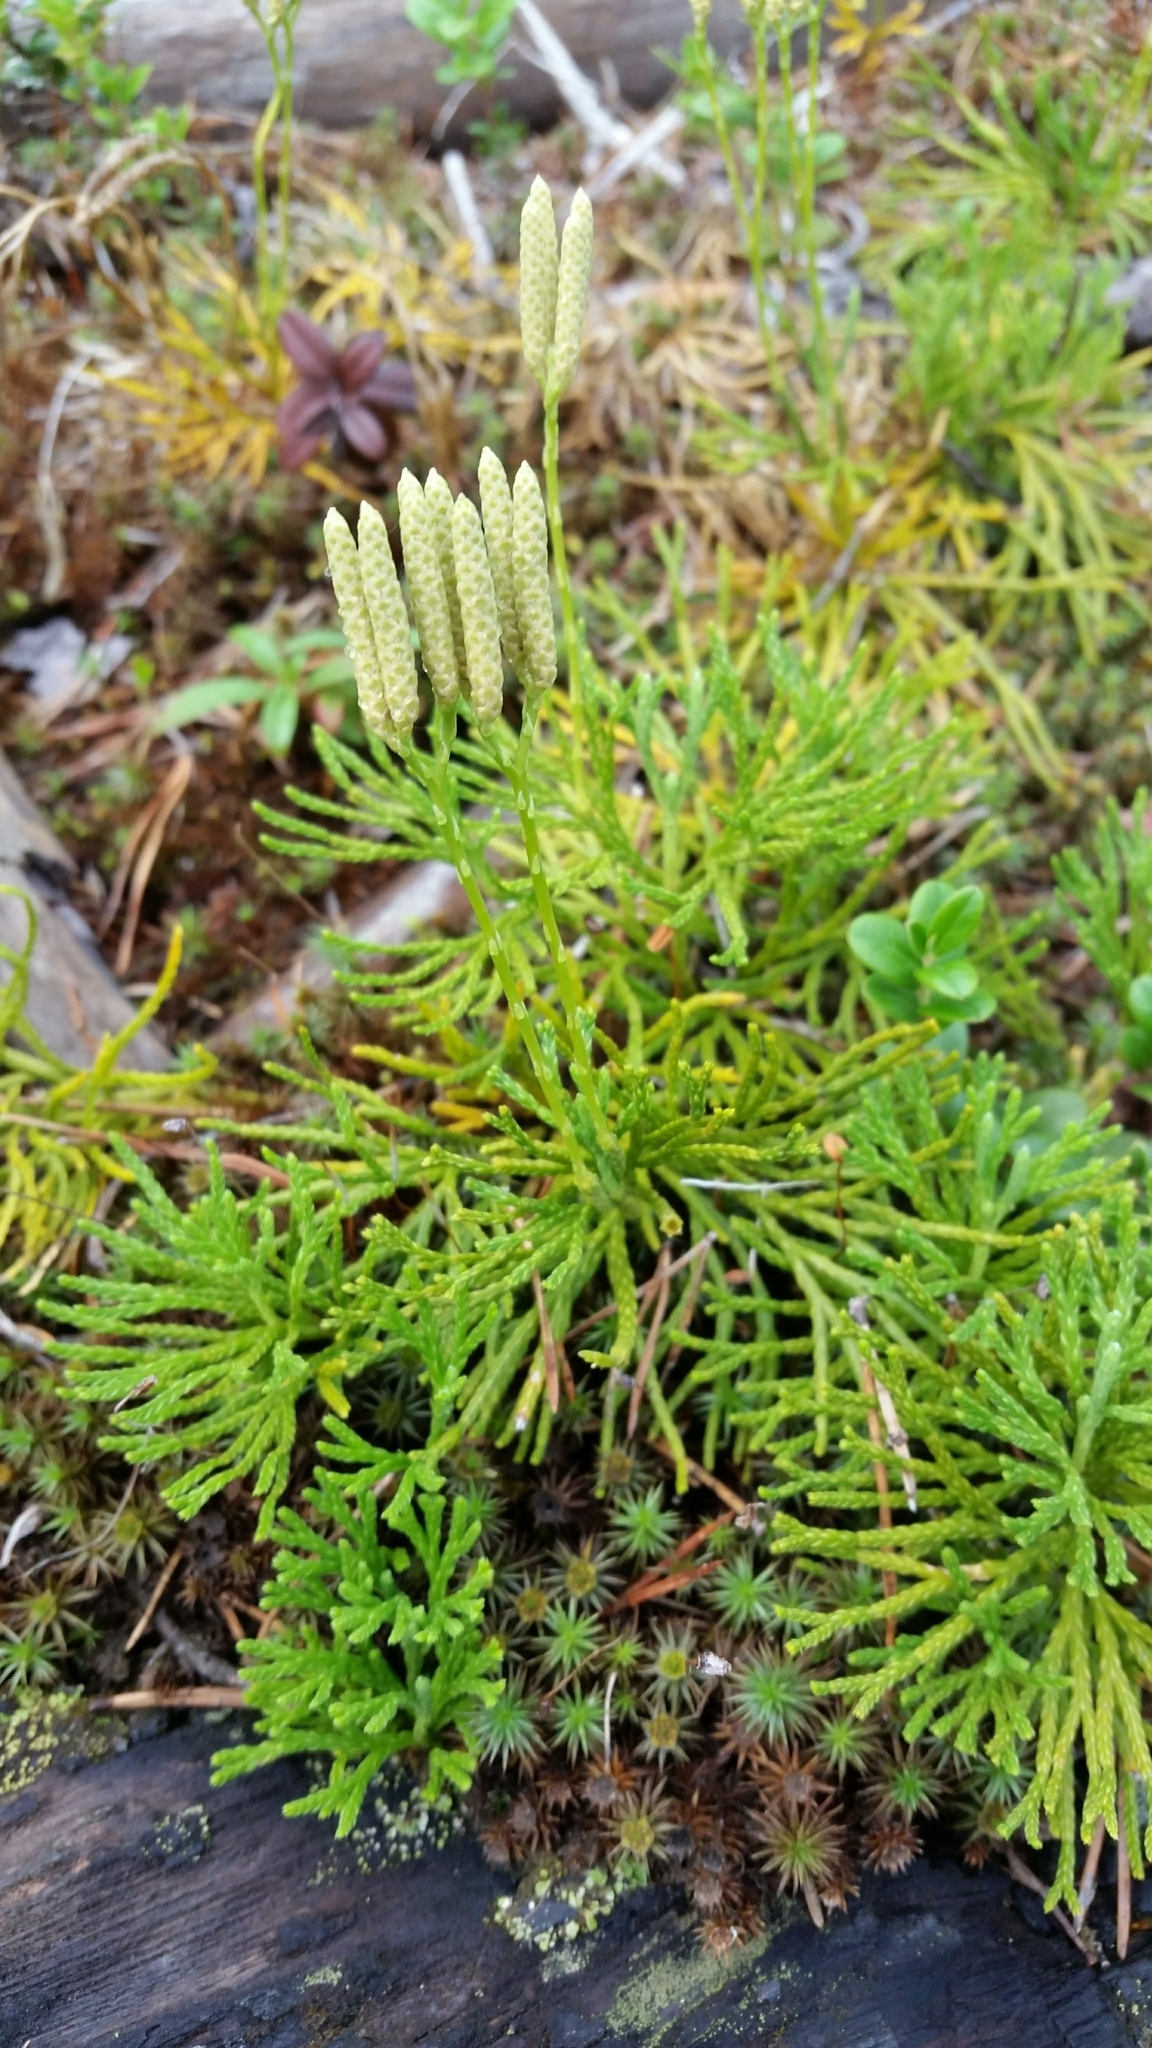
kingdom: Plantae
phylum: Tracheophyta
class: Lycopodiopsida
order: Lycopodiales
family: Lycopodiaceae
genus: Diphasiastrum
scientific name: Diphasiastrum complanatum
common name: Northern running-pine
